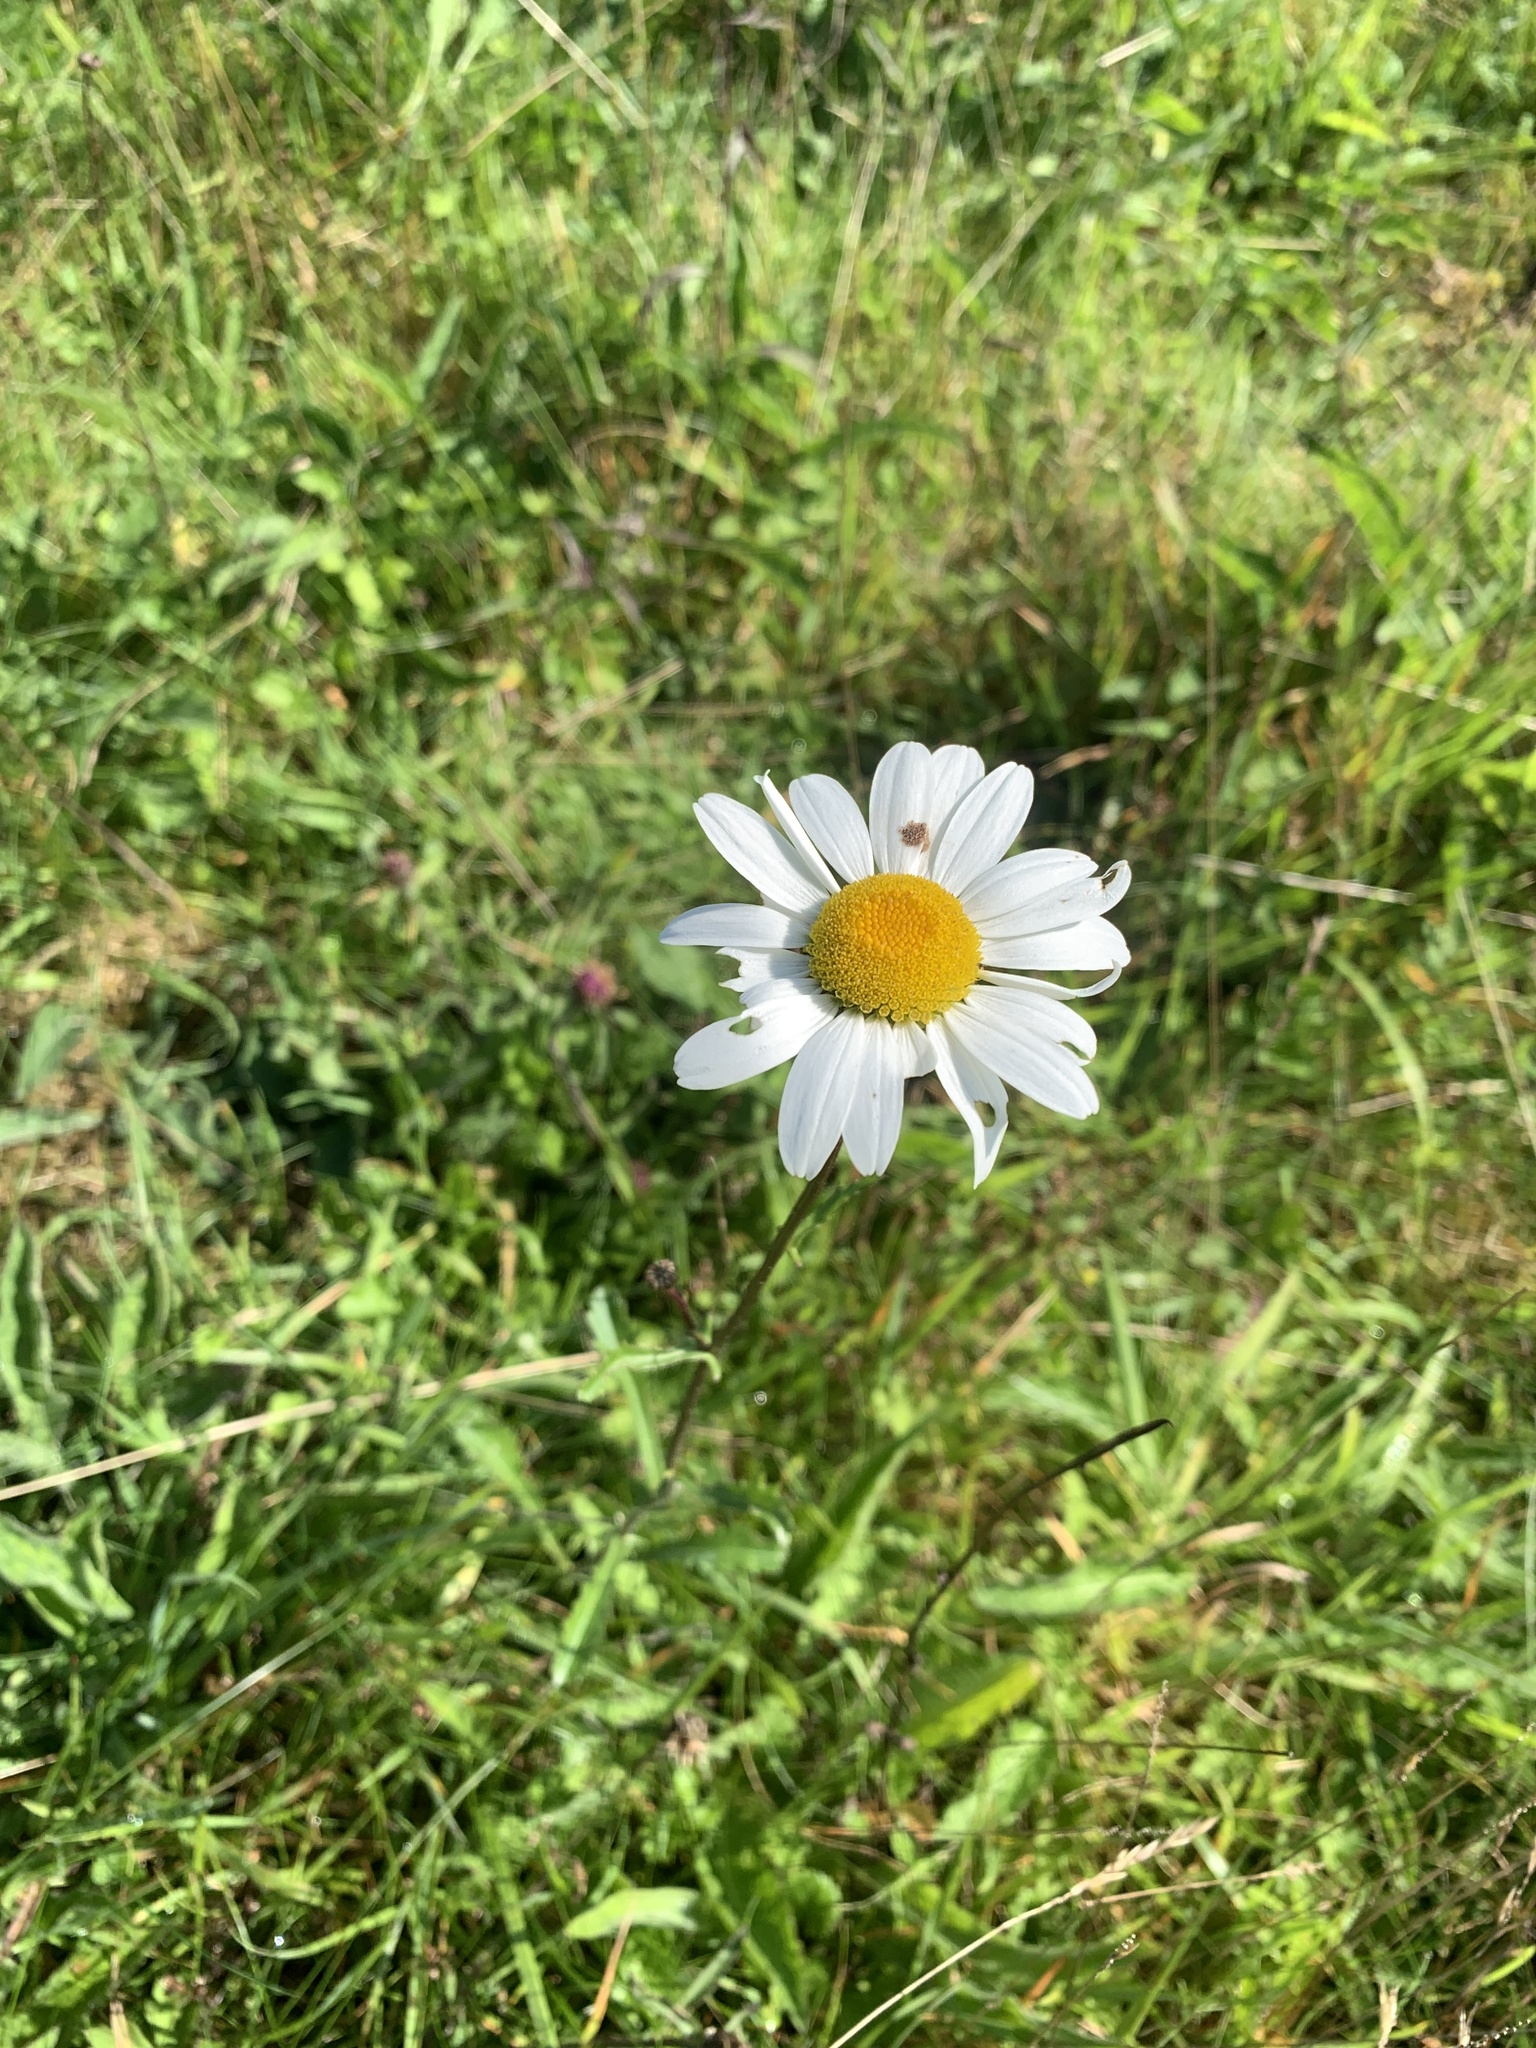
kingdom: Plantae
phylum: Tracheophyta
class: Magnoliopsida
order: Asterales
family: Asteraceae
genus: Leucanthemum
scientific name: Leucanthemum vulgare
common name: Oxeye daisy
